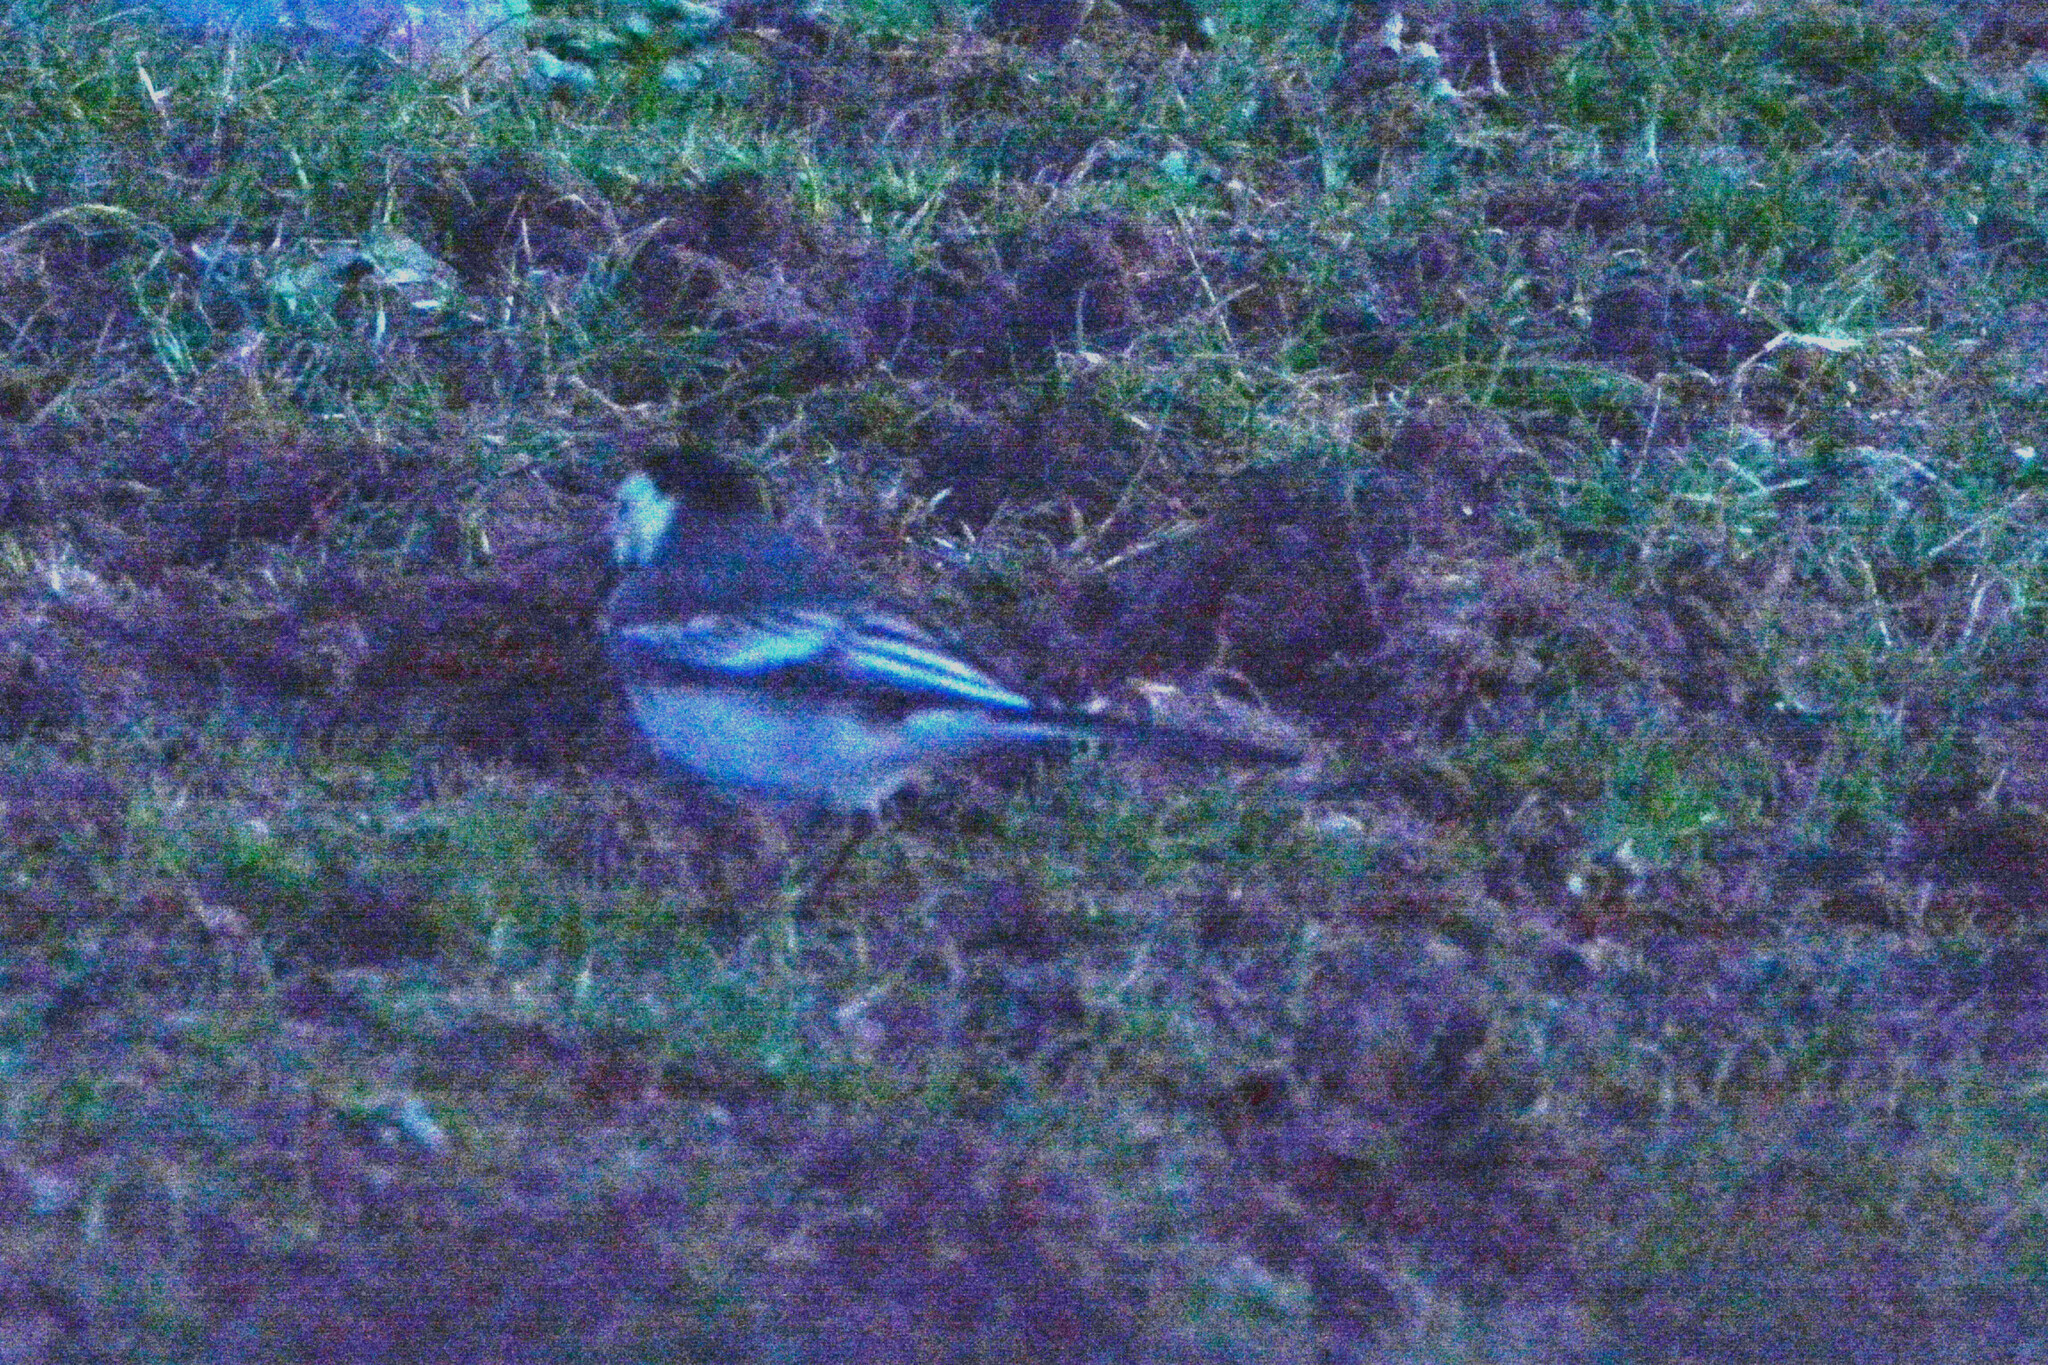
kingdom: Animalia
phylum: Chordata
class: Aves
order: Passeriformes
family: Motacillidae
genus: Motacilla
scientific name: Motacilla alba
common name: White wagtail
